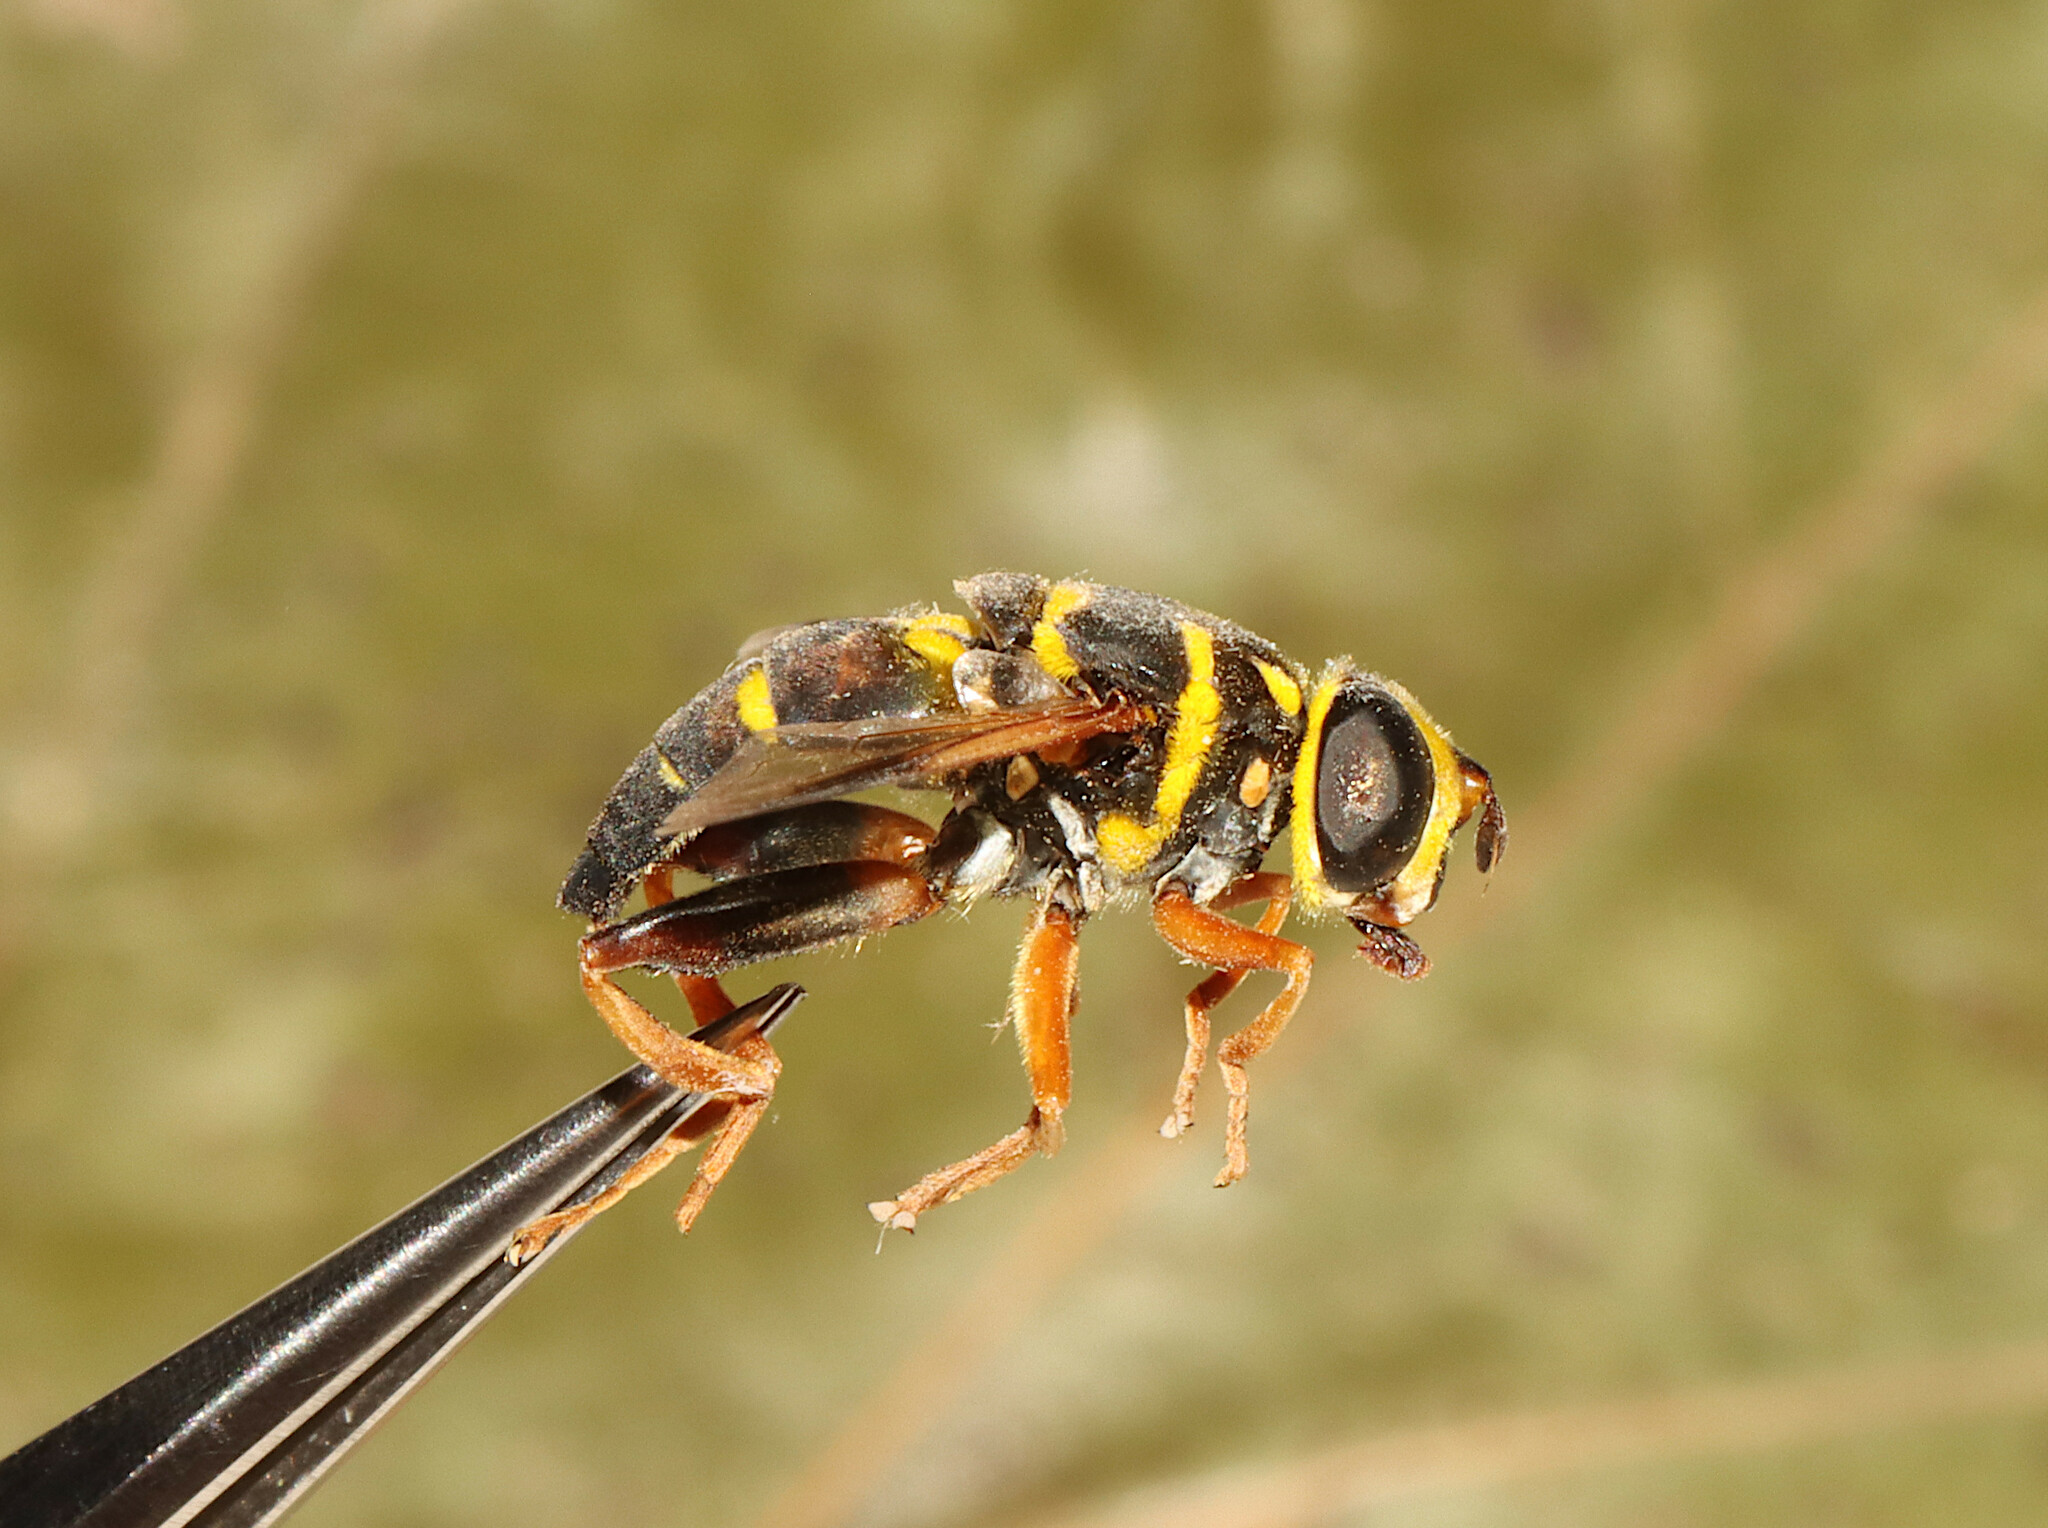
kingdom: Animalia
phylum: Arthropoda
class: Insecta
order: Diptera
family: Syrphidae
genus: Meromacrus
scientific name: Meromacrus acutus
